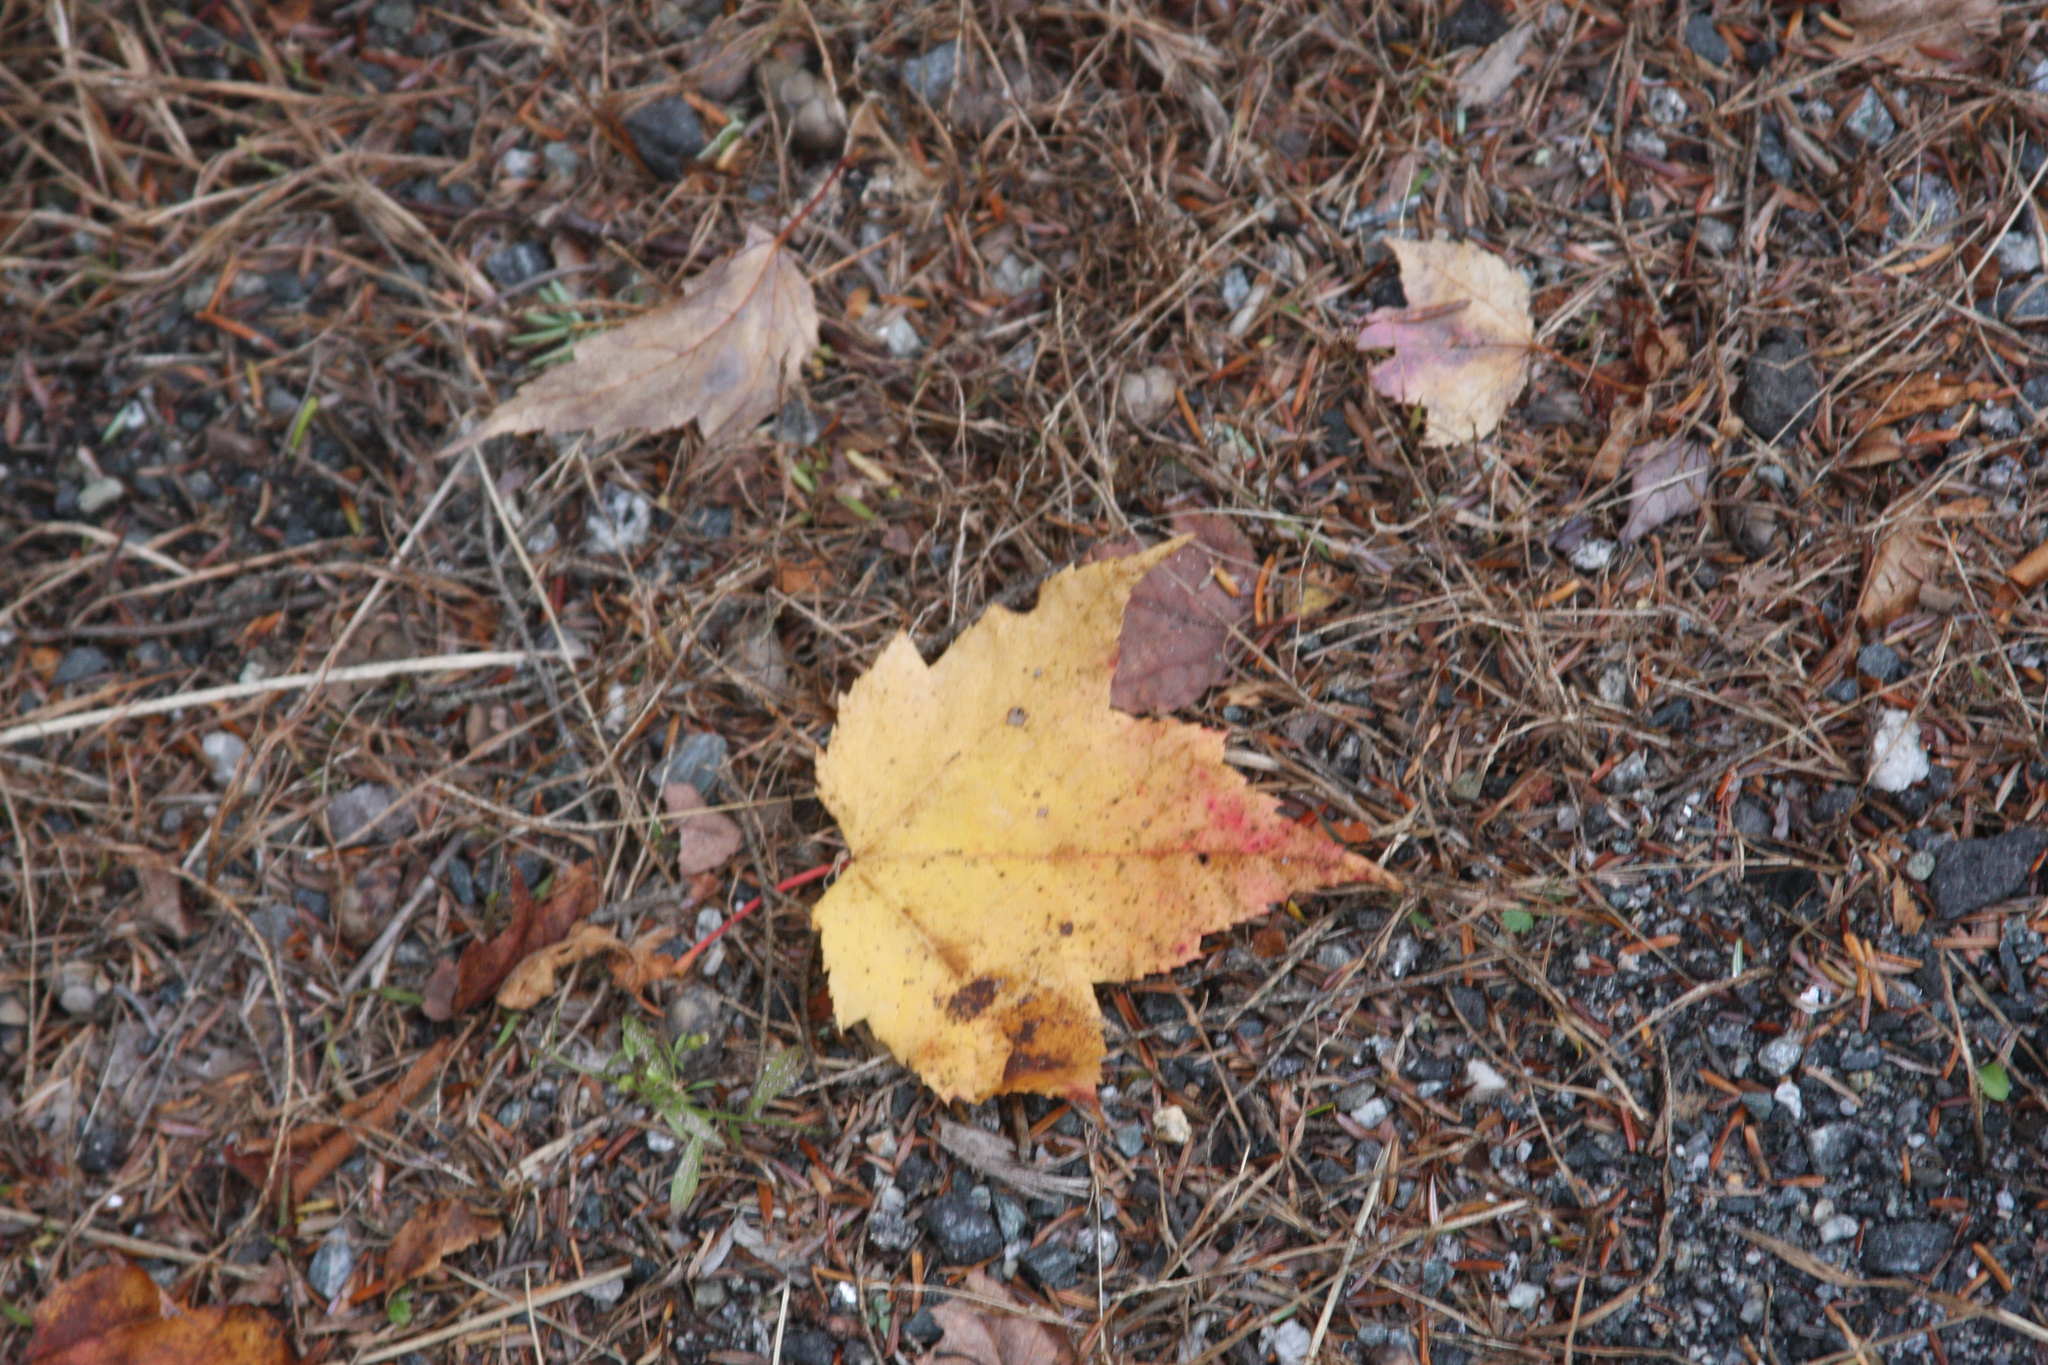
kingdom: Plantae
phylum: Tracheophyta
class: Magnoliopsida
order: Sapindales
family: Sapindaceae
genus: Acer
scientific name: Acer rubrum
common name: Red maple
